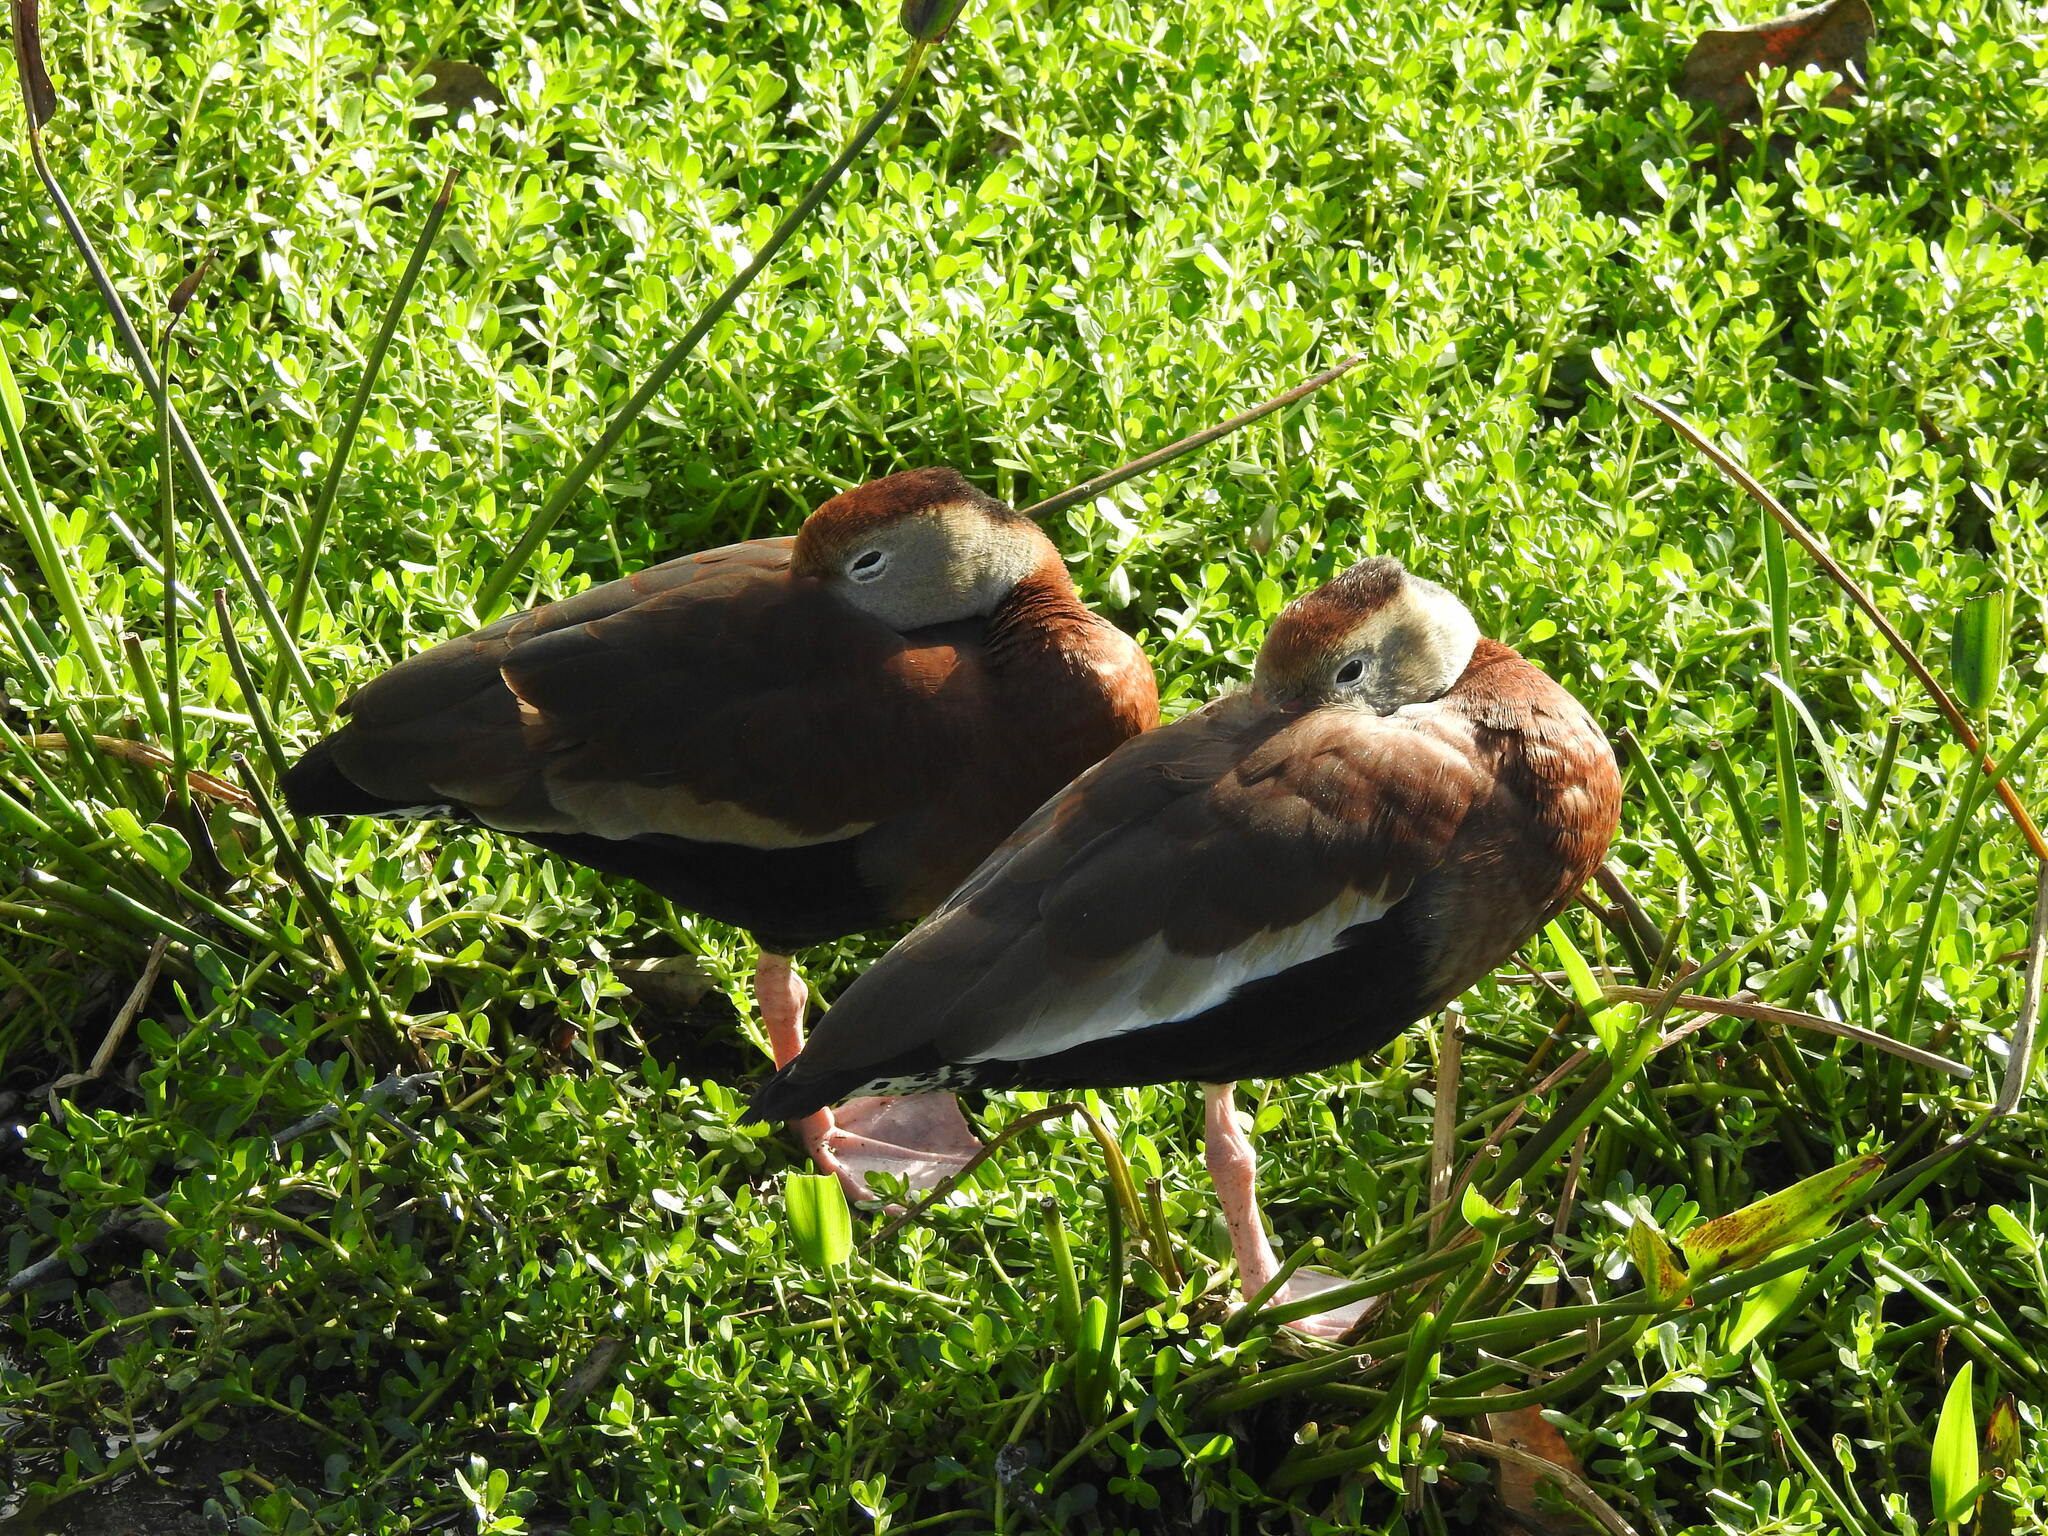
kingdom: Animalia
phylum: Chordata
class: Aves
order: Anseriformes
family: Anatidae
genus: Dendrocygna
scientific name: Dendrocygna autumnalis
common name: Black-bellied whistling duck
